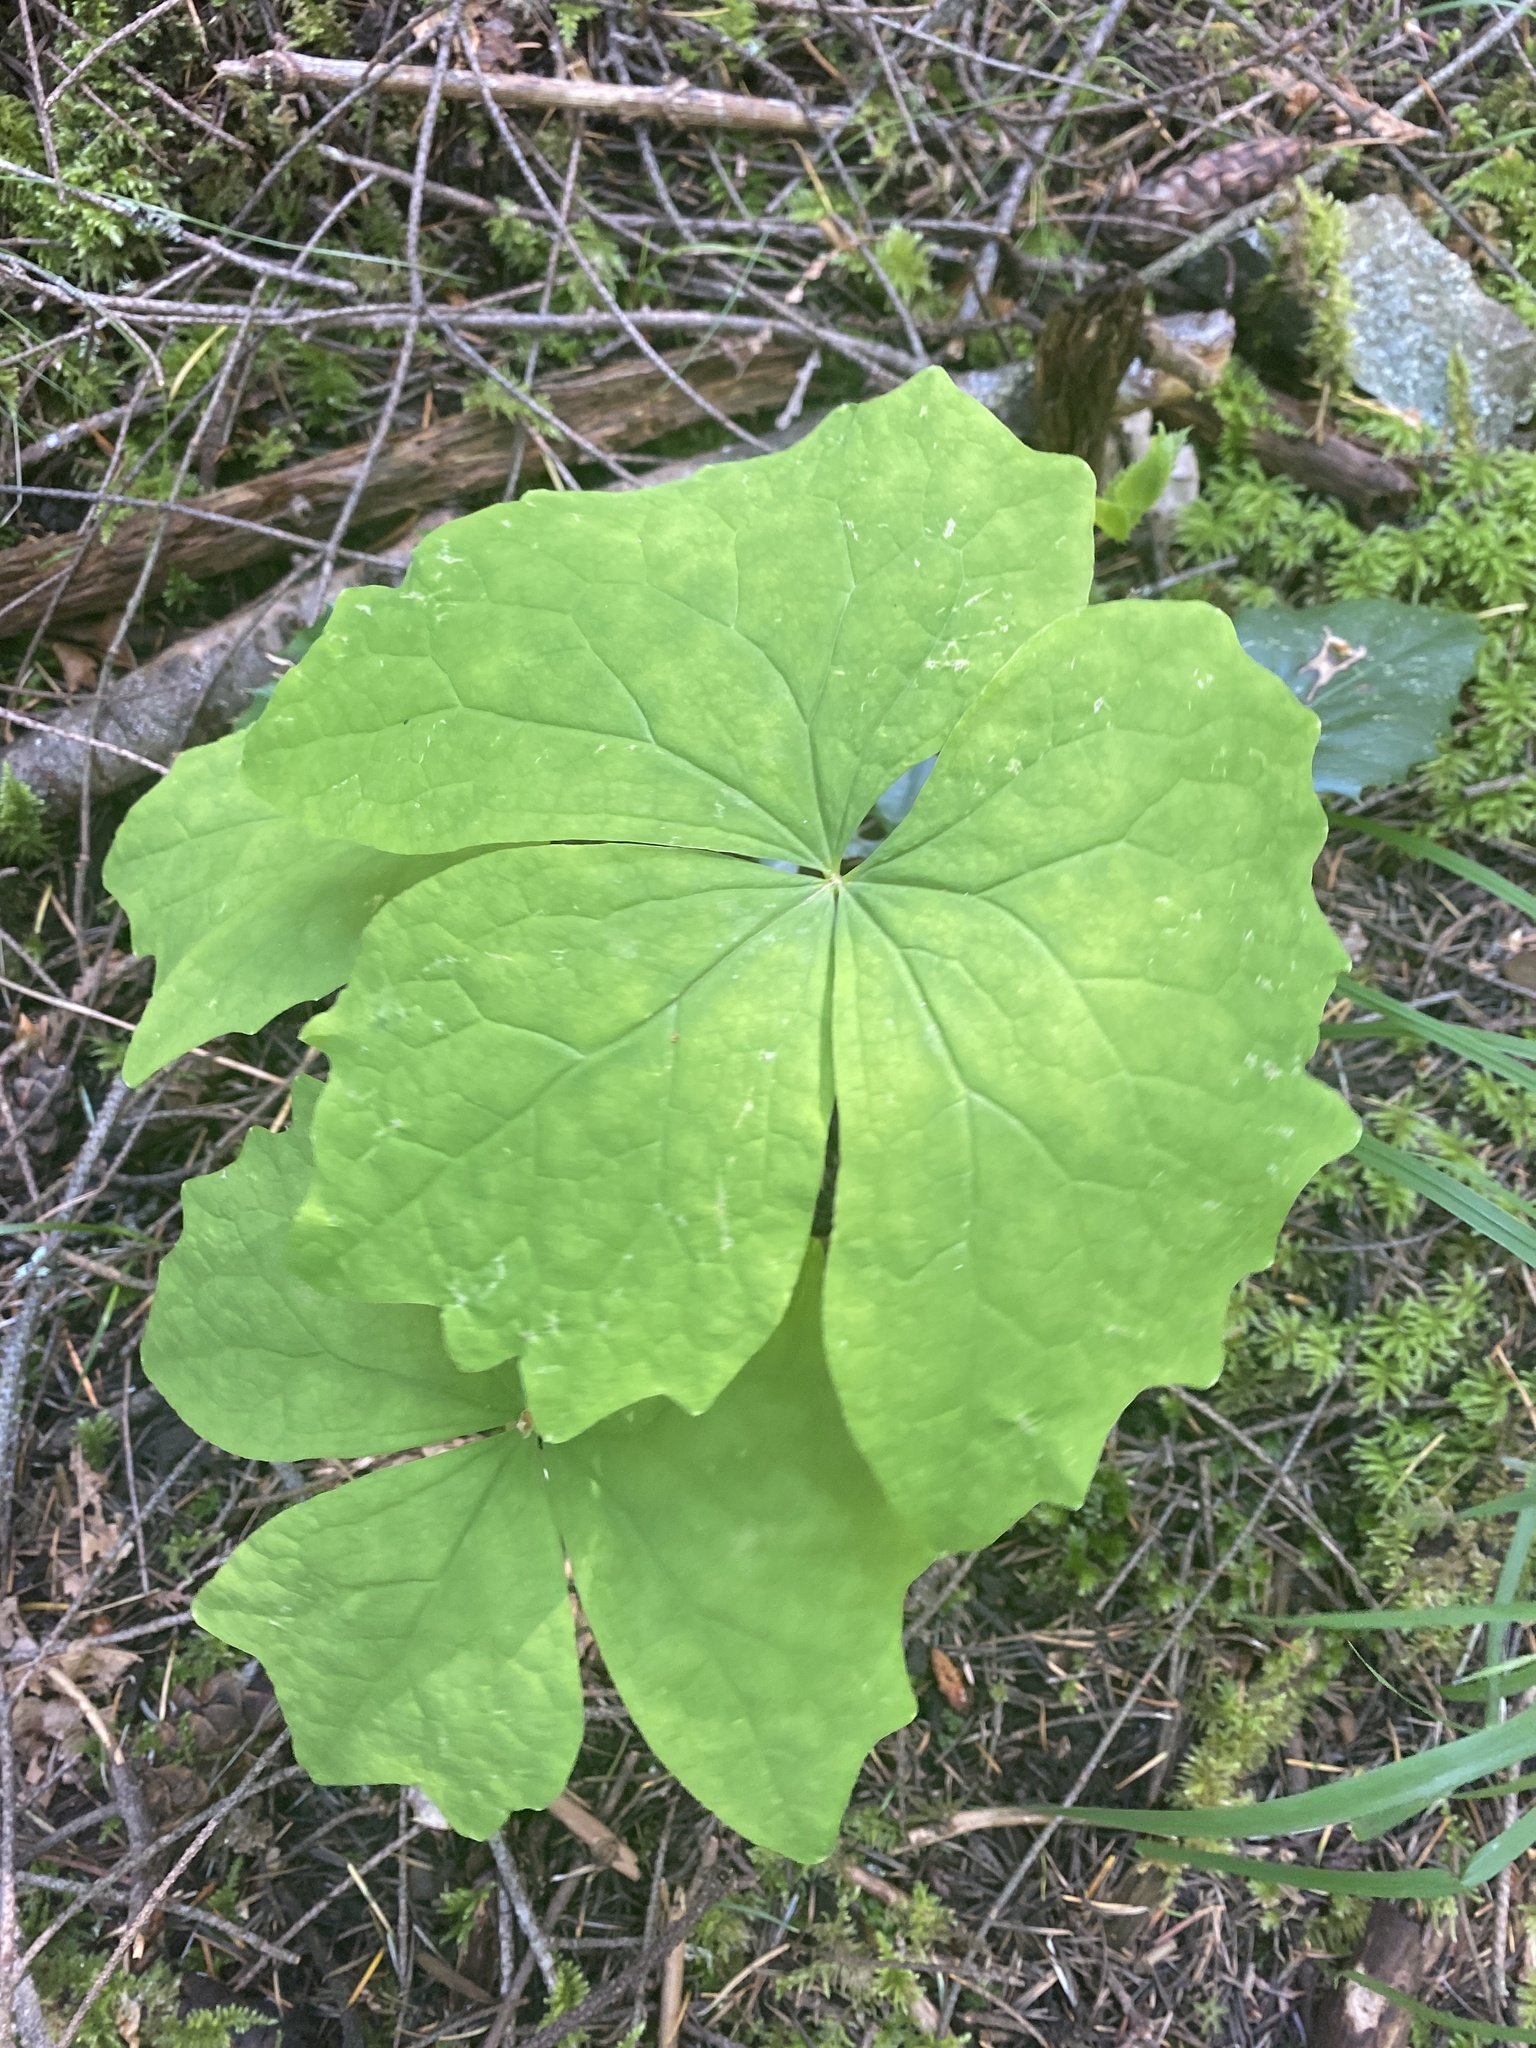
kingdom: Plantae
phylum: Tracheophyta
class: Magnoliopsida
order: Ranunculales
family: Berberidaceae
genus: Achlys
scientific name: Achlys triphylla
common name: Vanilla-leaf
